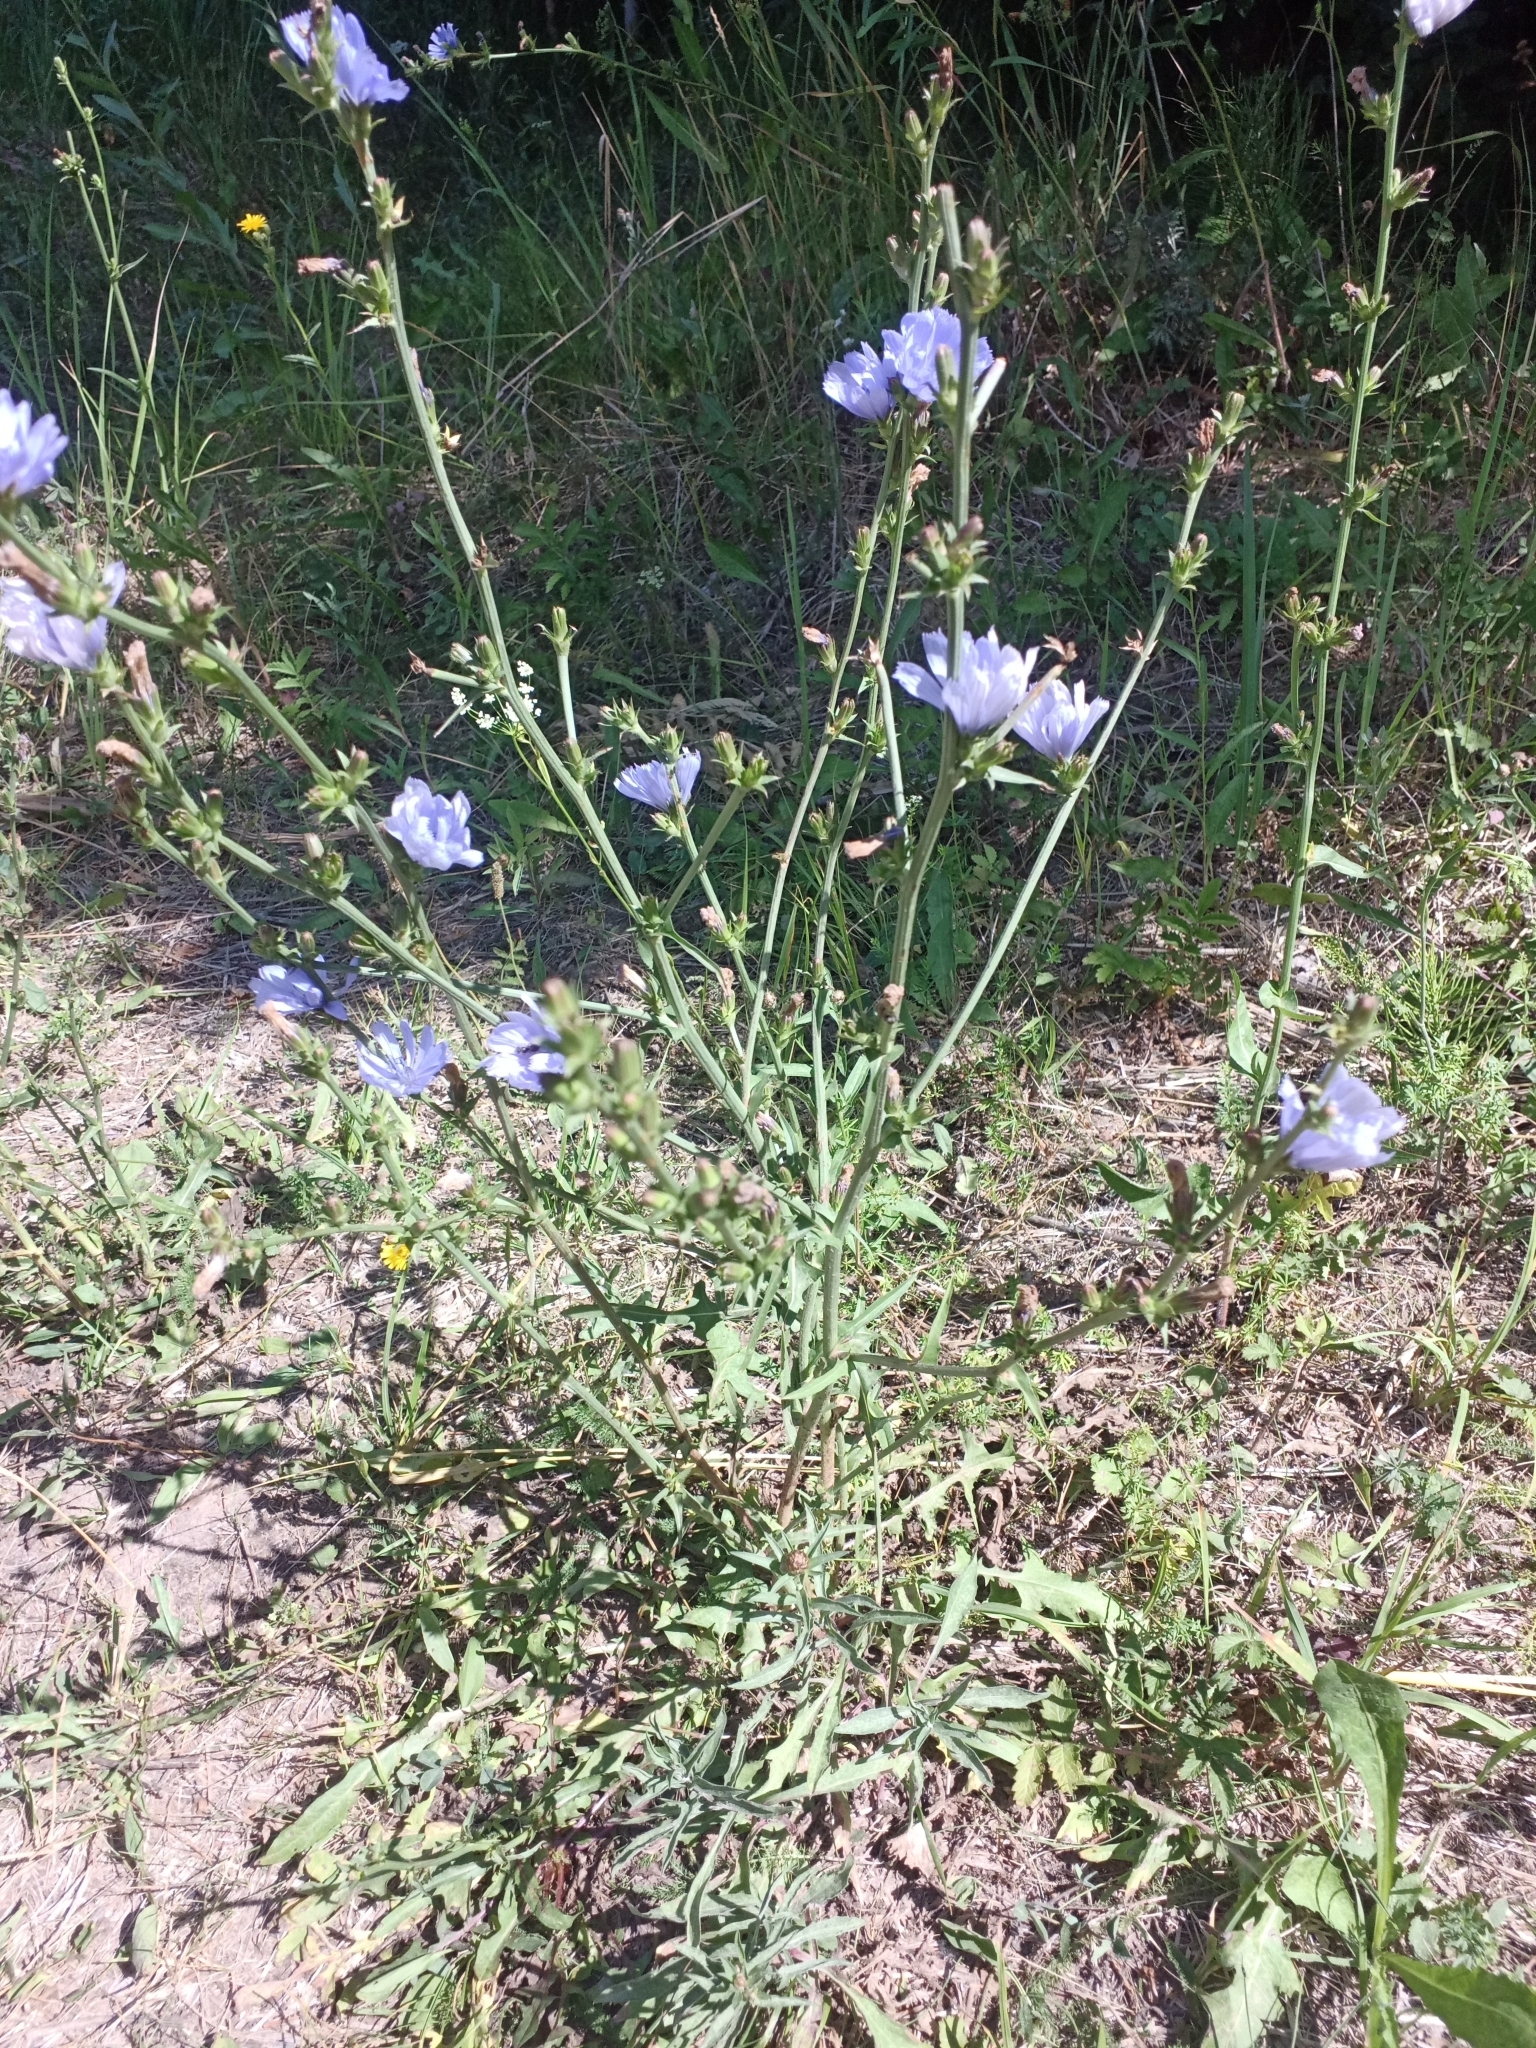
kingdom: Plantae
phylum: Tracheophyta
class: Magnoliopsida
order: Asterales
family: Asteraceae
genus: Cichorium
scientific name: Cichorium intybus
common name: Chicory
